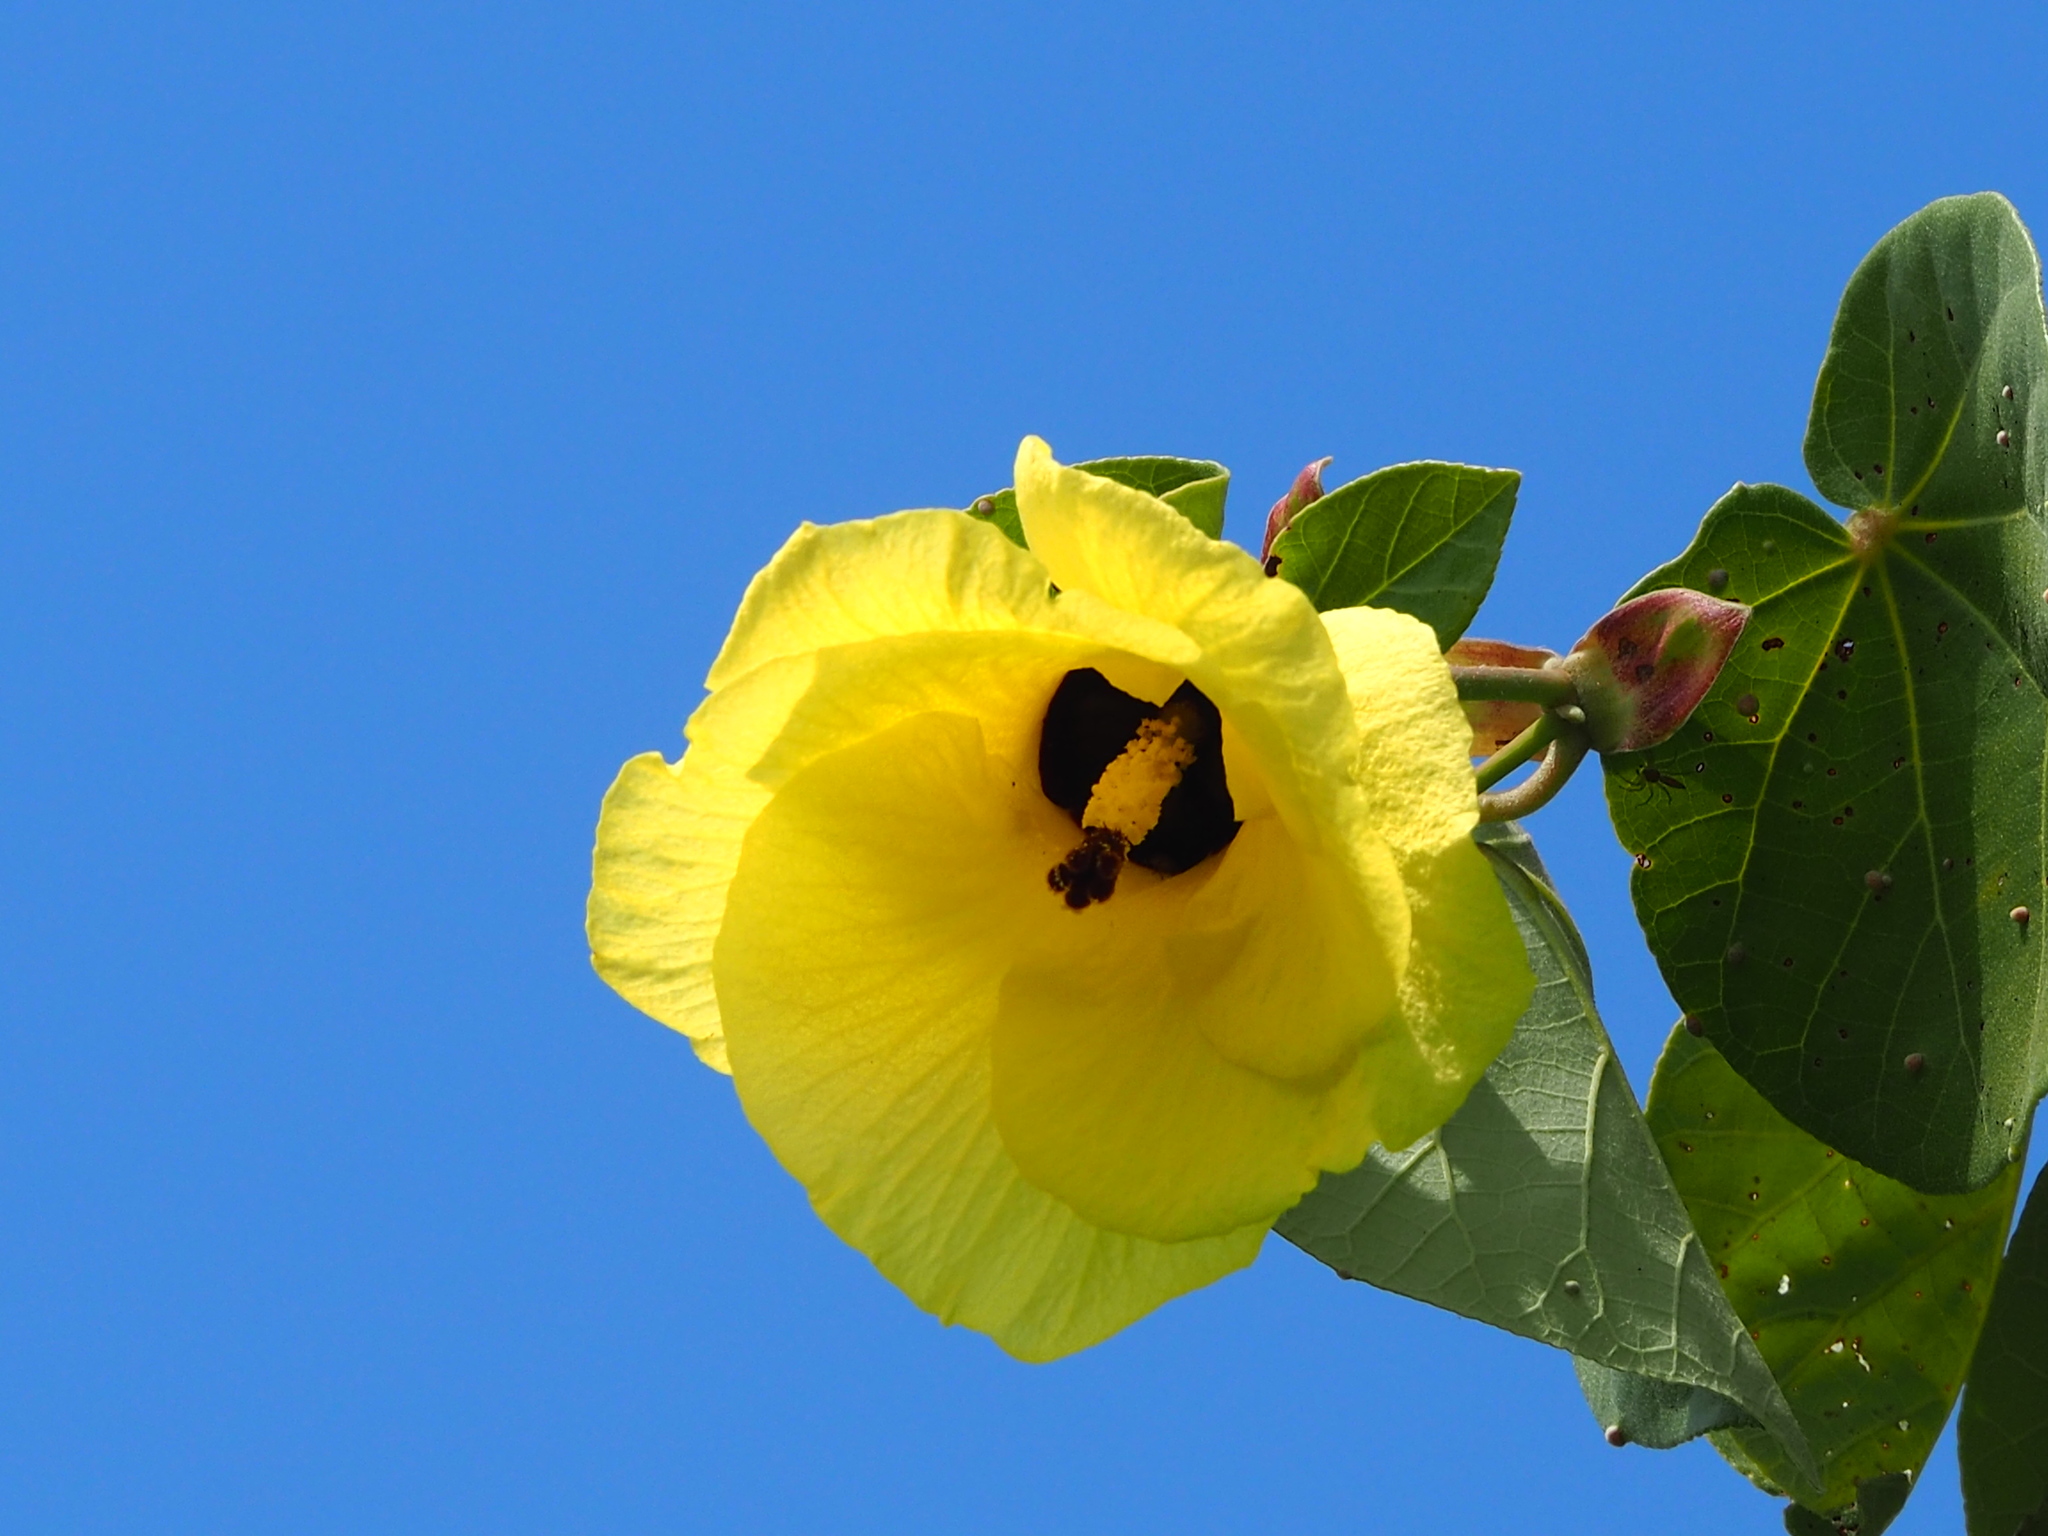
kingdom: Plantae
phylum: Tracheophyta
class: Magnoliopsida
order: Malvales
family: Malvaceae
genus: Talipariti
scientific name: Talipariti tiliaceum
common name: Sea hibiscus
